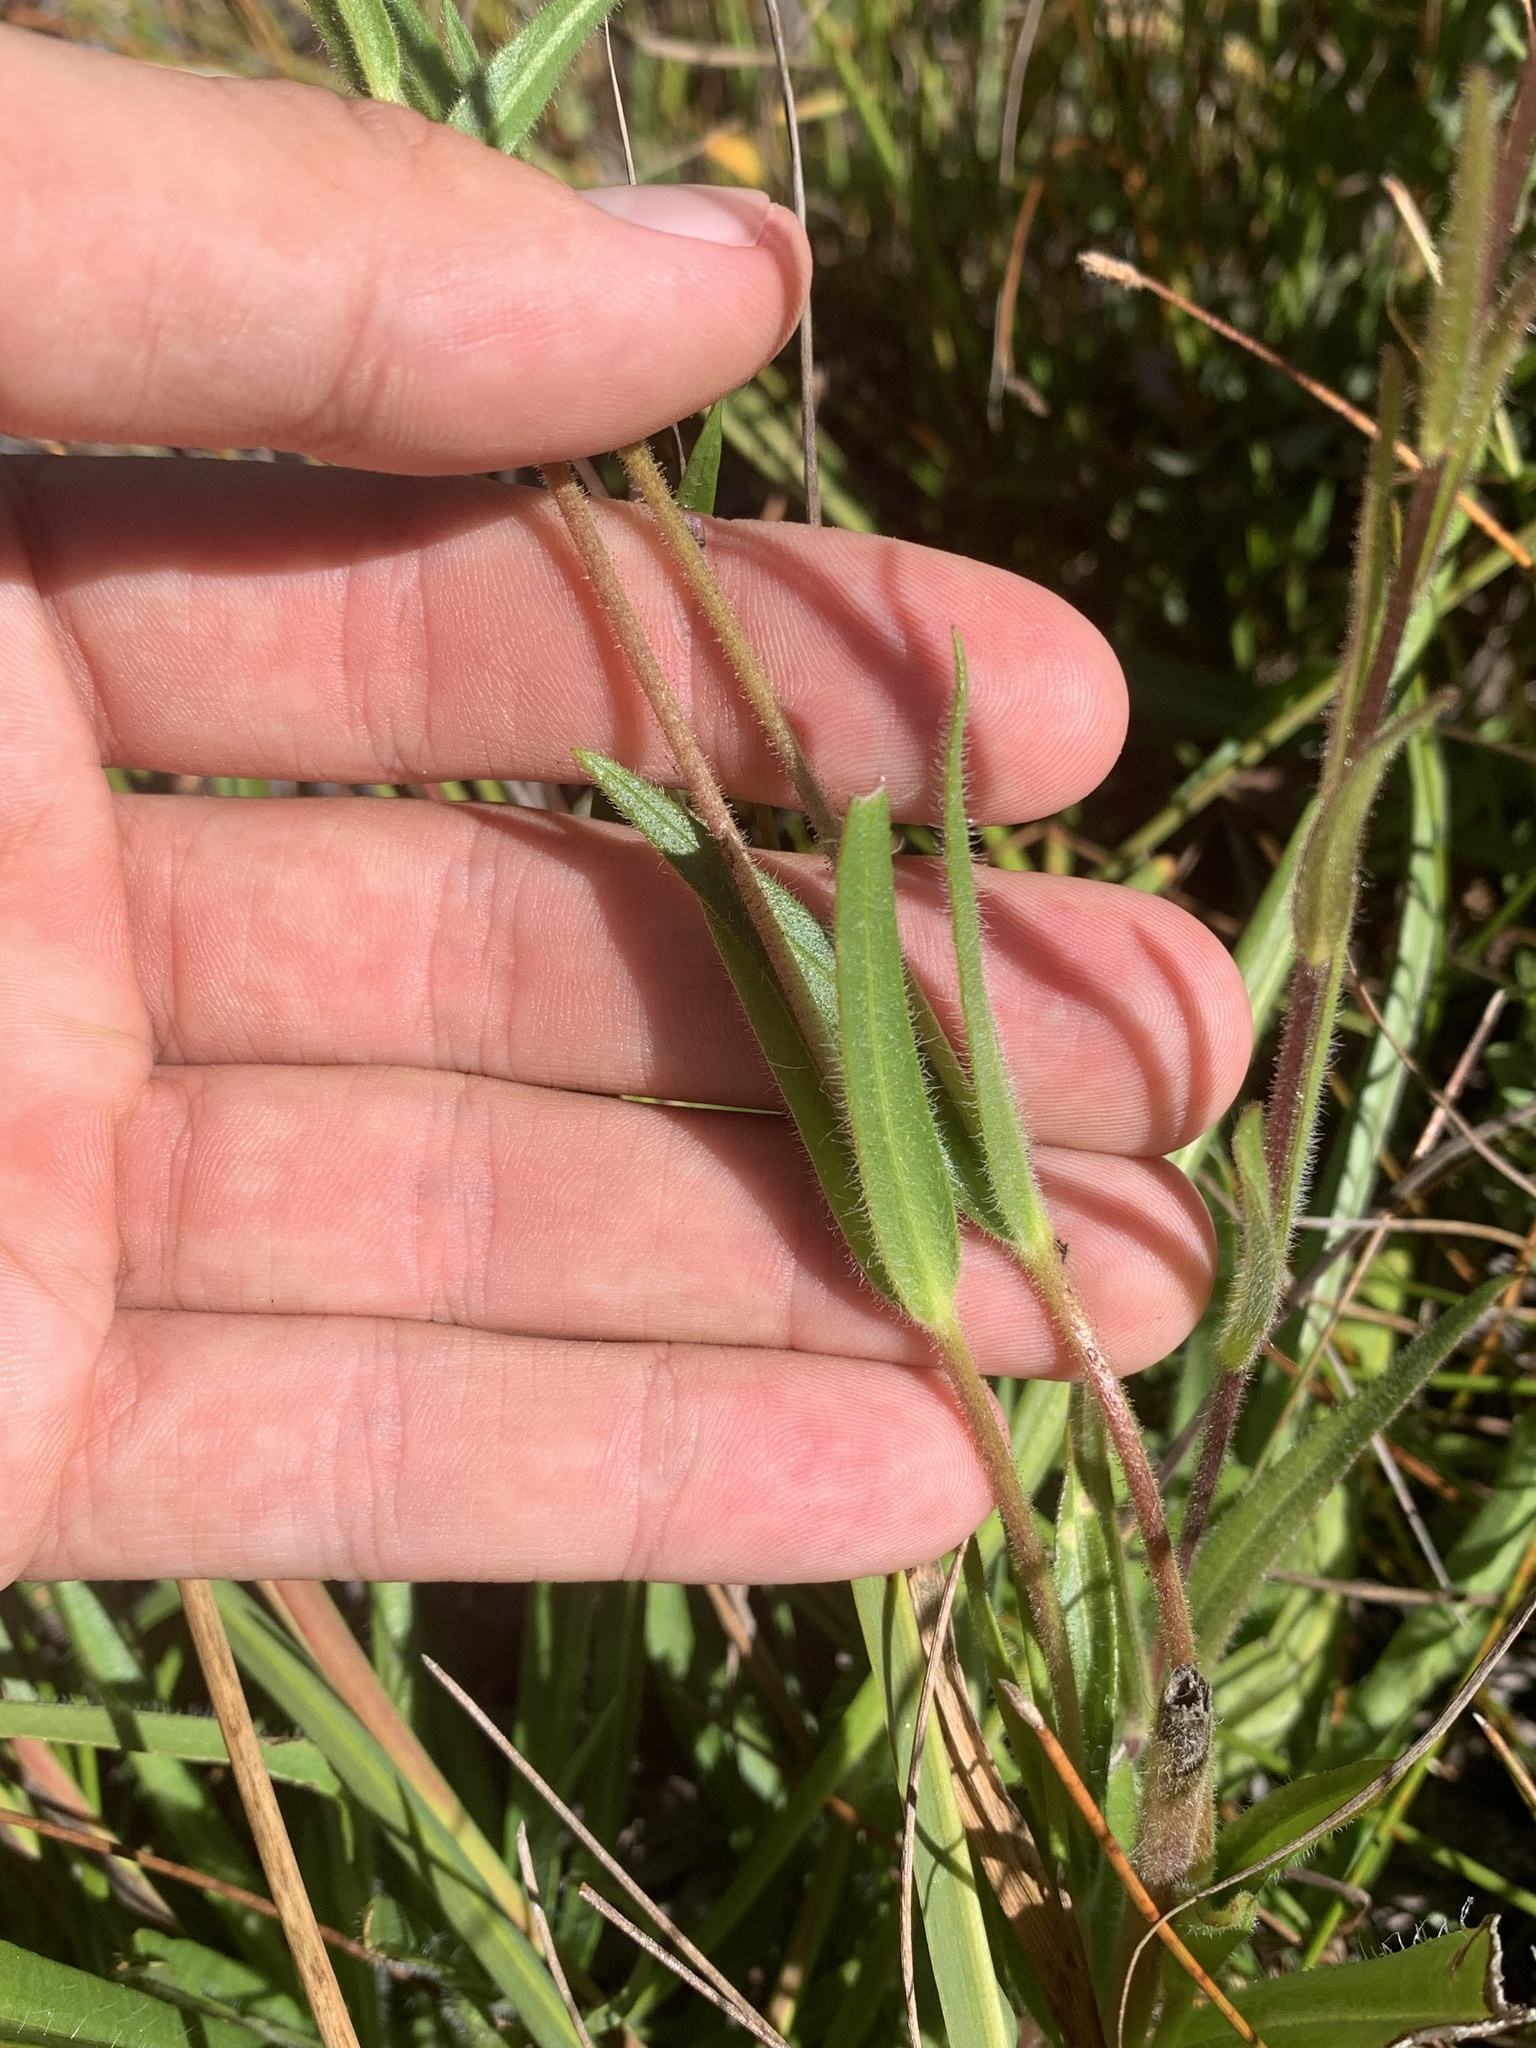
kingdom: Plantae
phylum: Tracheophyta
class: Magnoliopsida
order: Asterales
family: Asteraceae
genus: Kyhosia
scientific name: Kyhosia bolanderi
